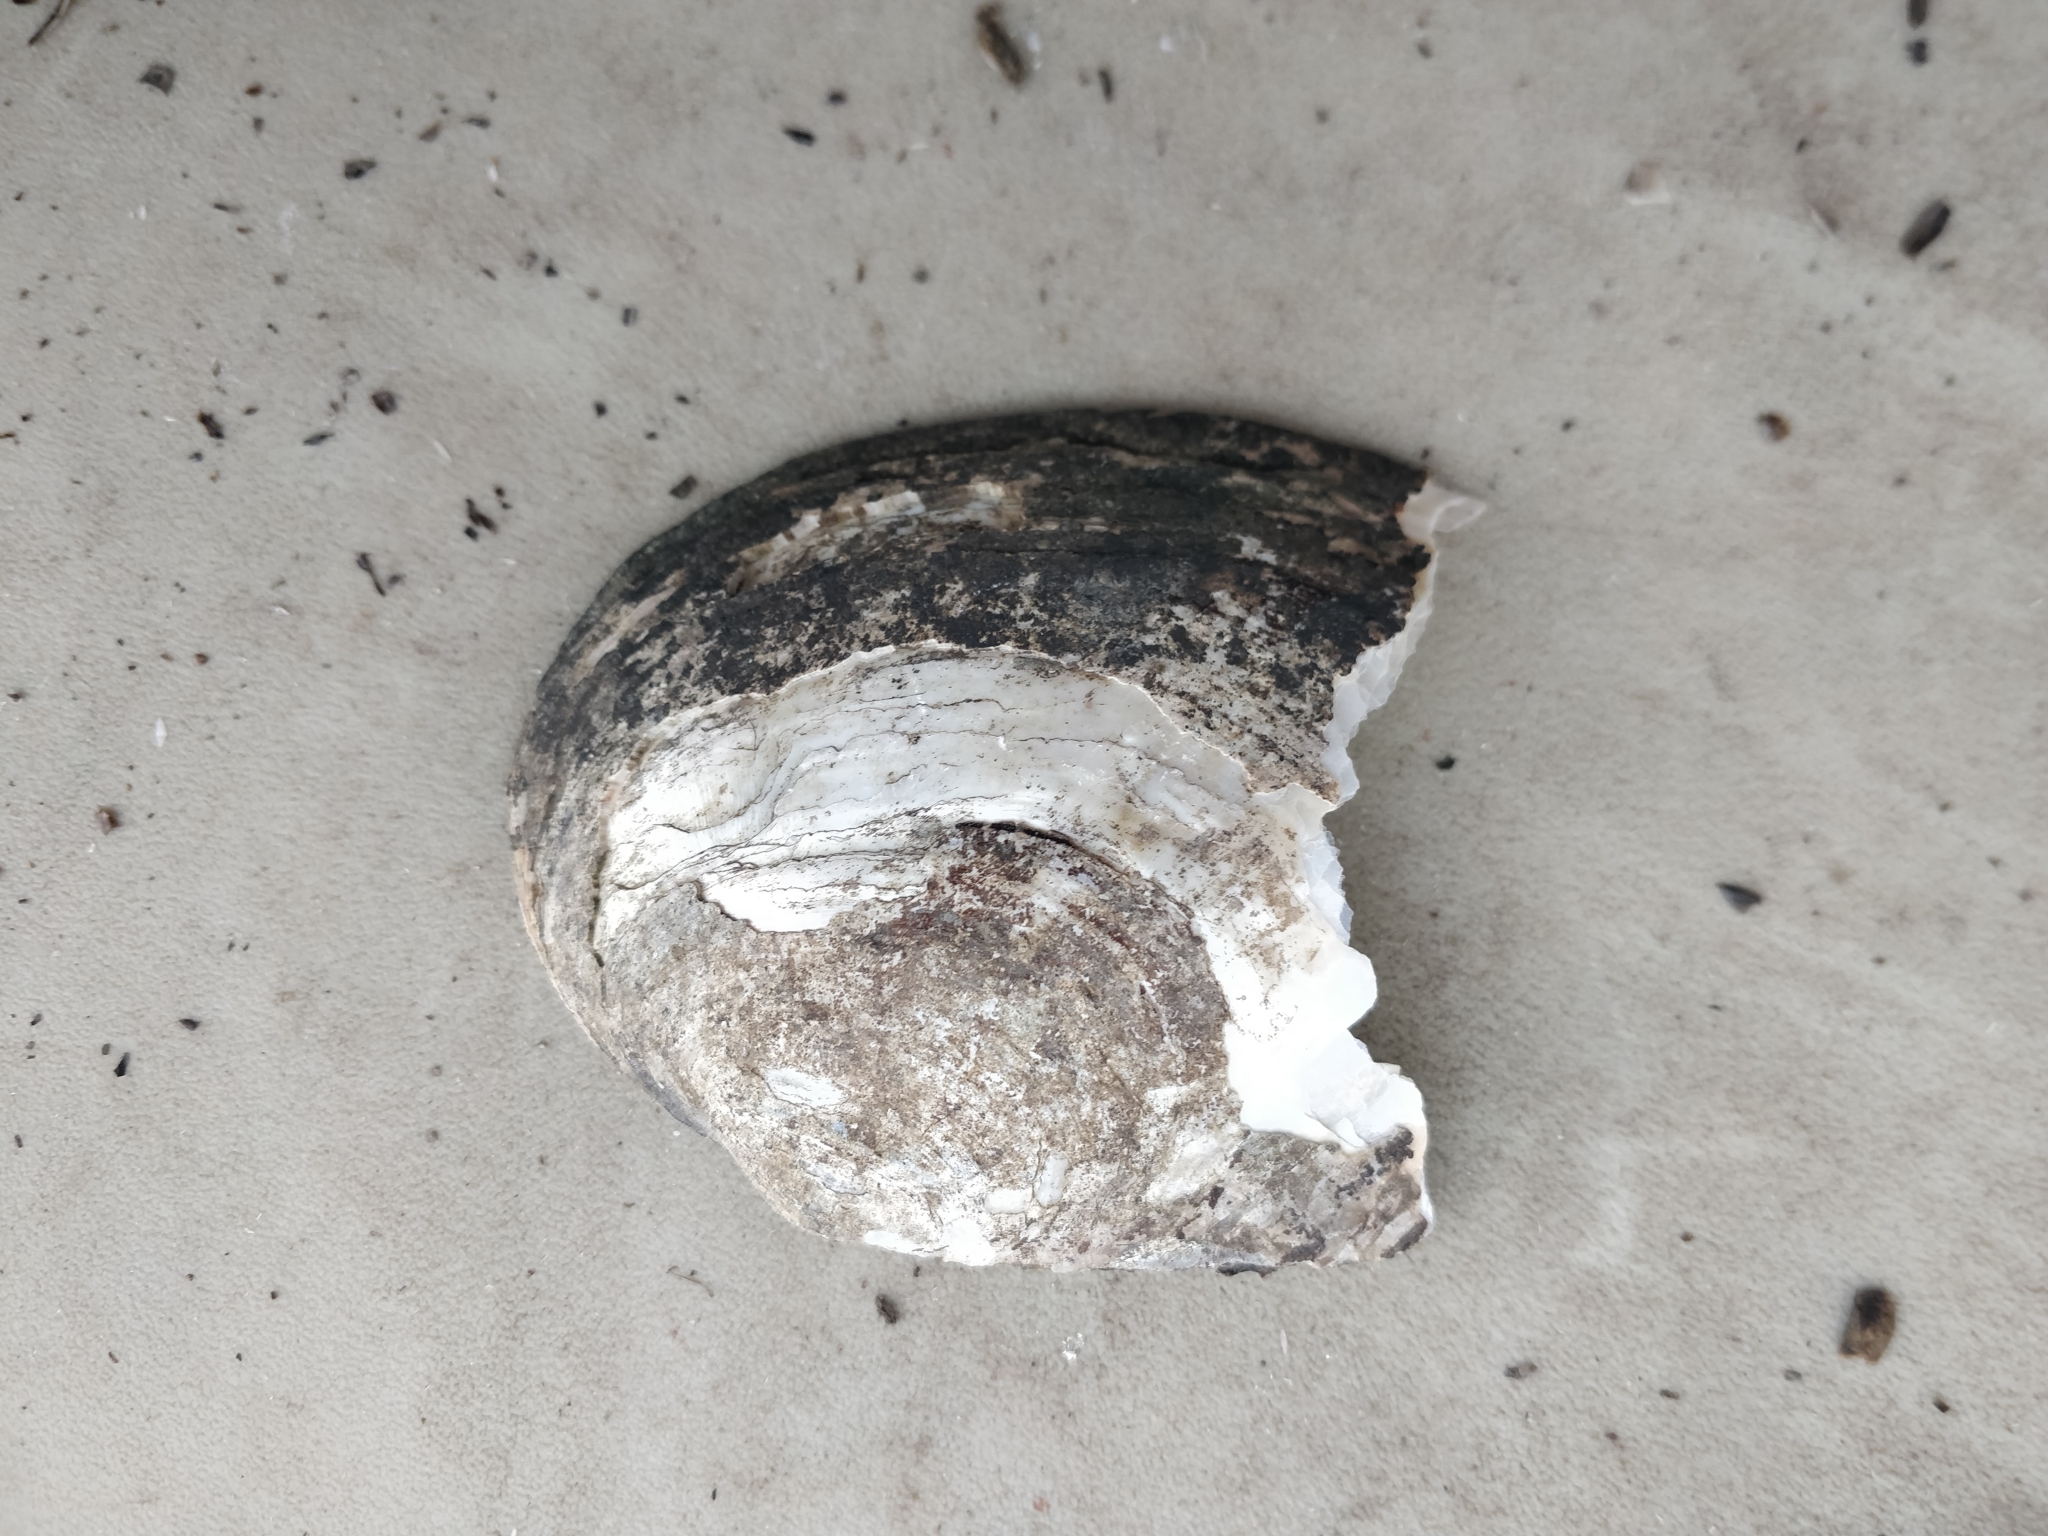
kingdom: Animalia
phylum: Mollusca
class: Bivalvia
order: Unionida
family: Unionidae
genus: Lasmigona
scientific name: Lasmigona complanata
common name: White heelsplitter
